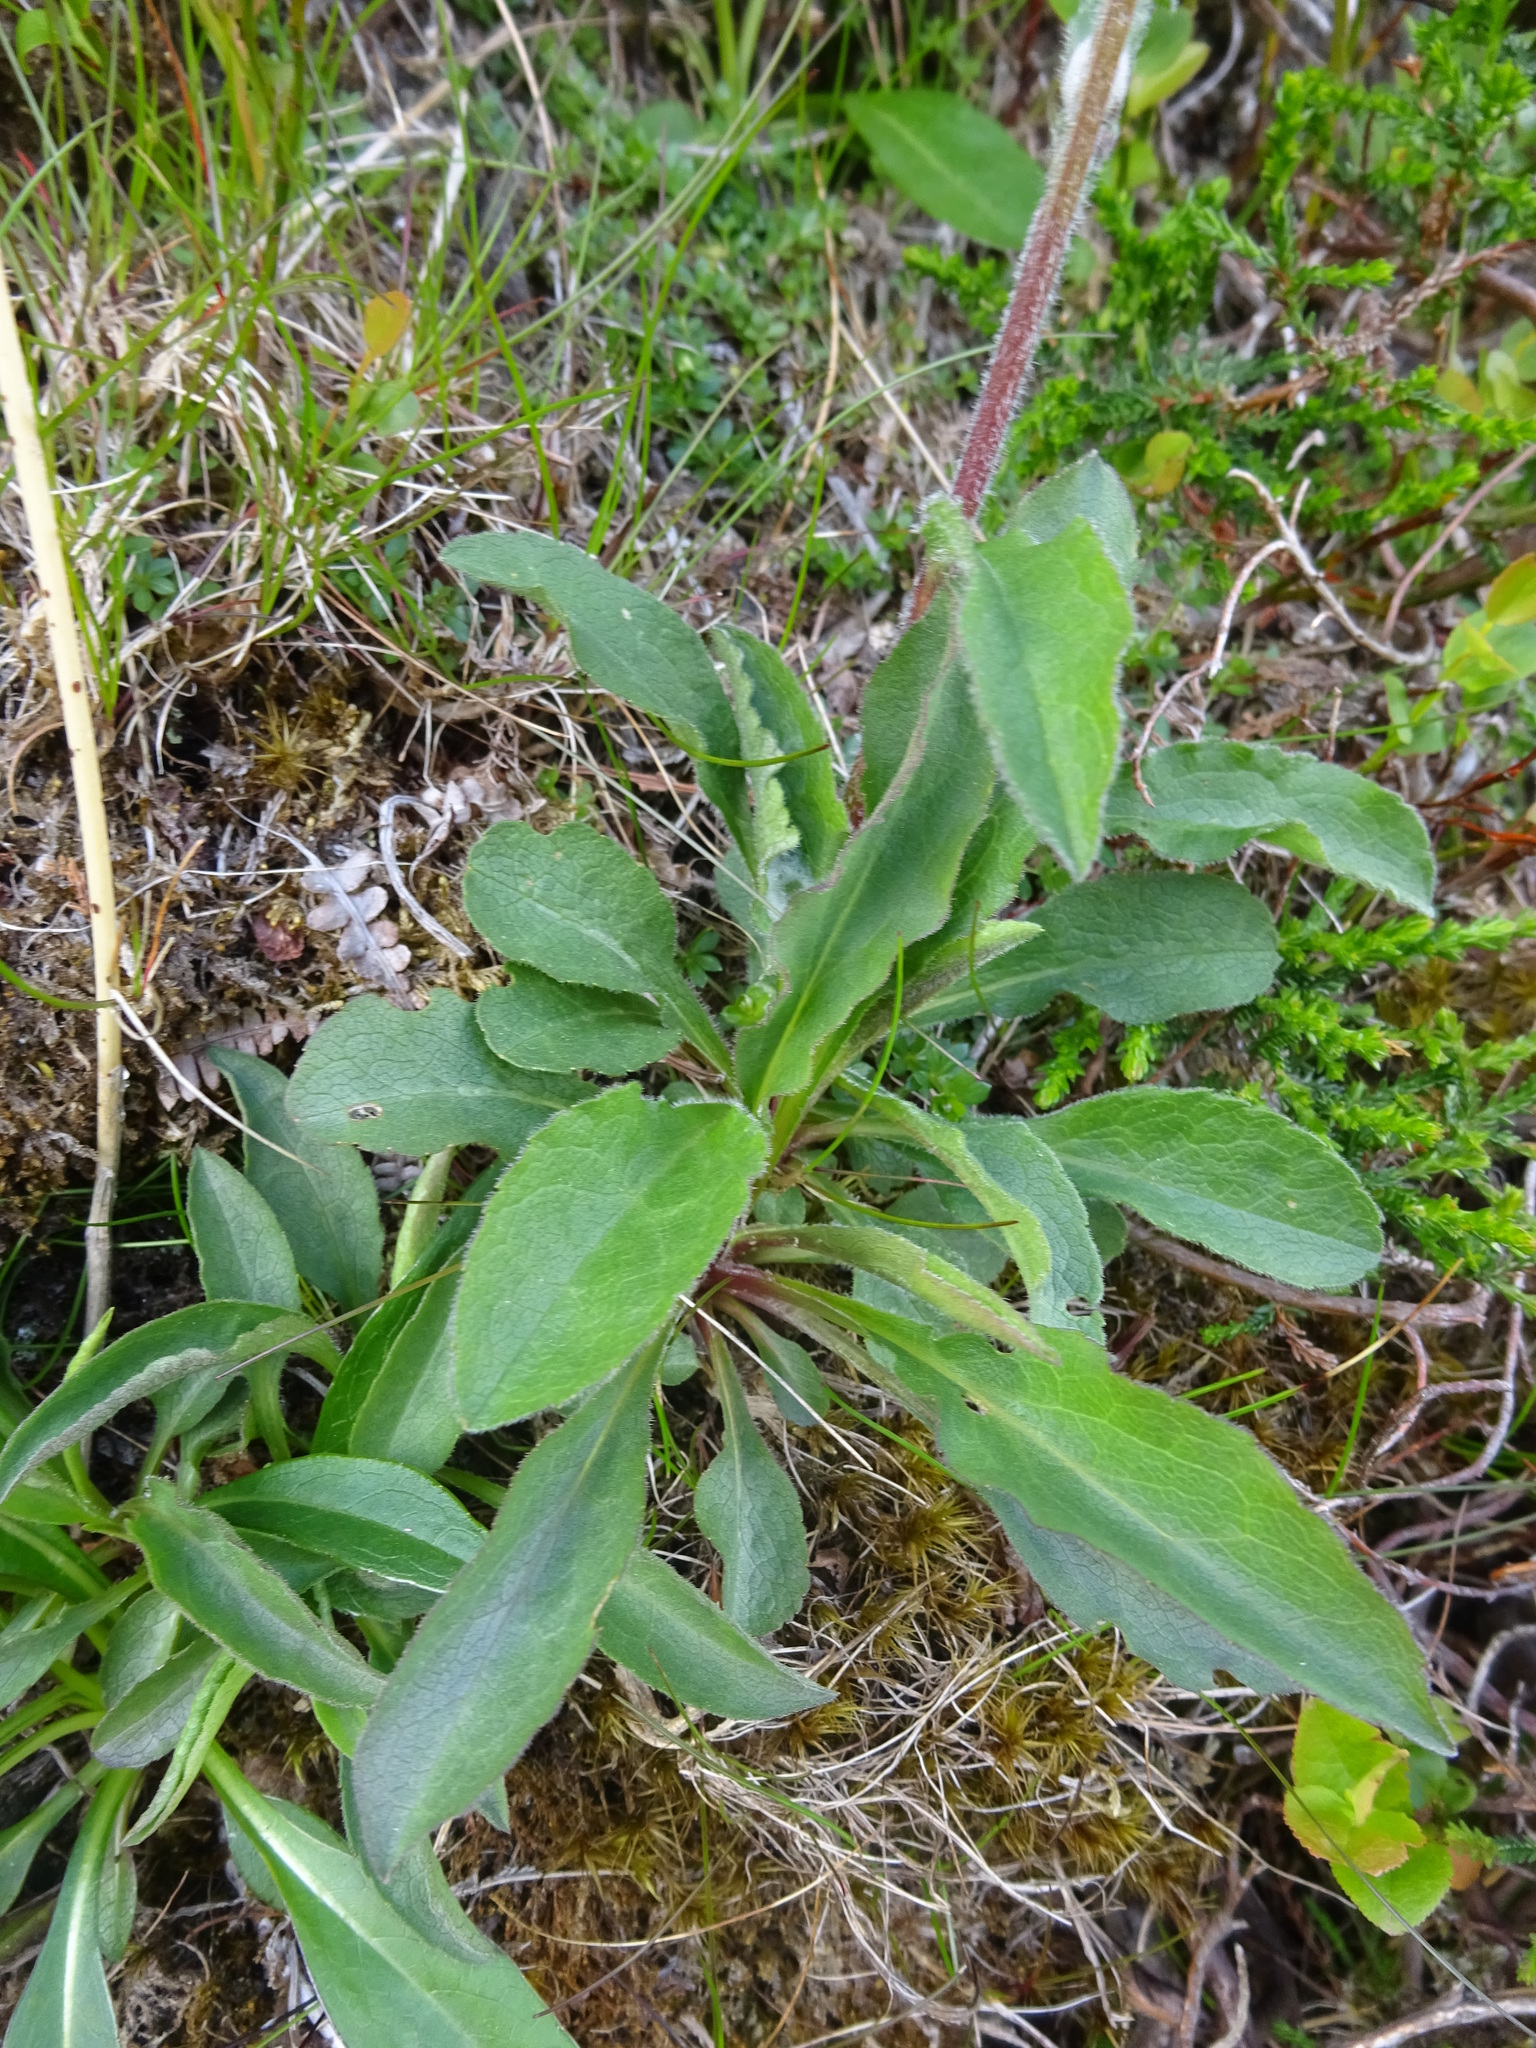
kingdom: Plantae
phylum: Tracheophyta
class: Magnoliopsida
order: Asterales
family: Asteraceae
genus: Solidago
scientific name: Solidago virgaurea
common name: Goldenrod
